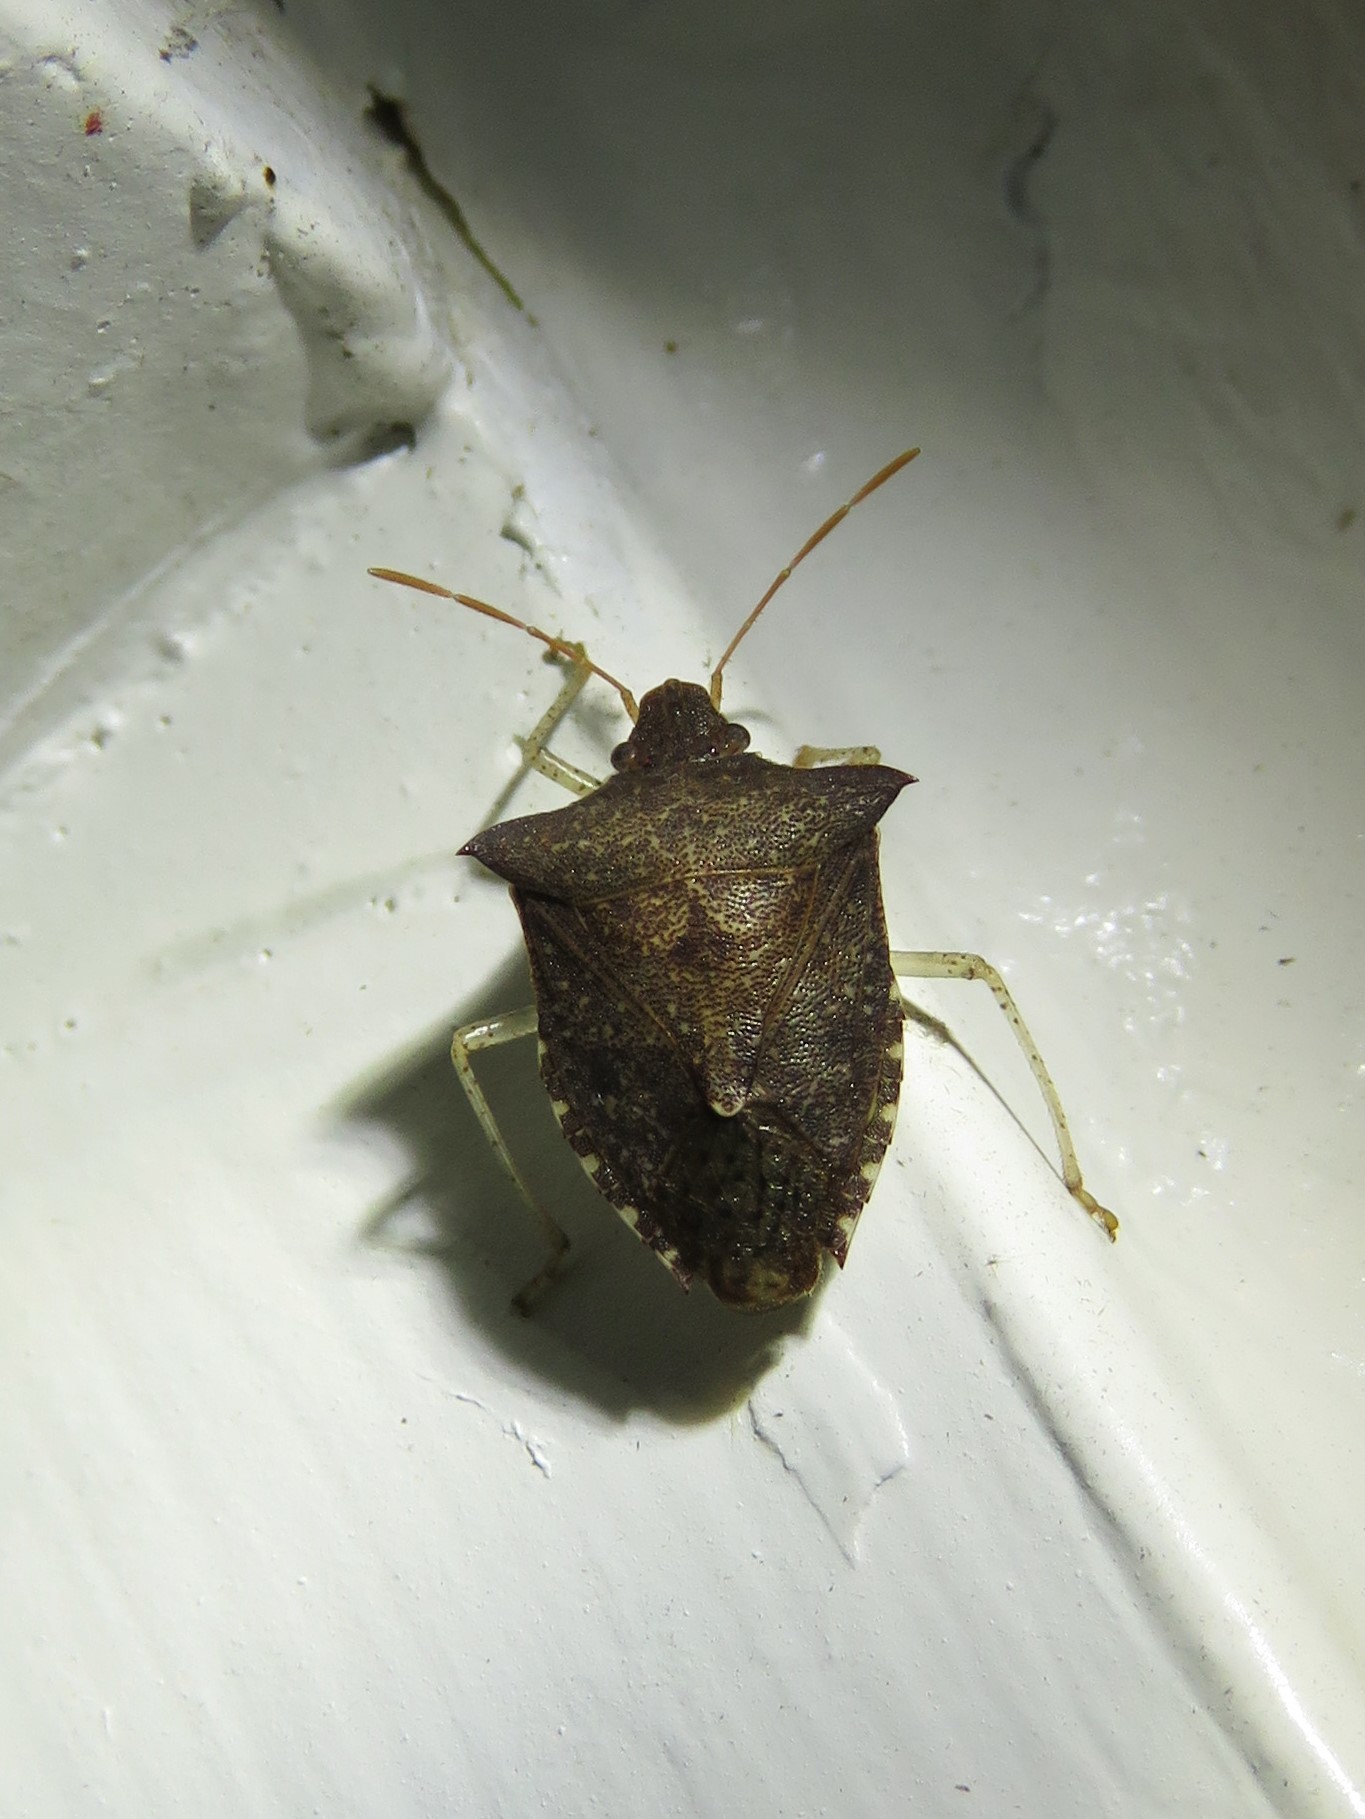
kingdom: Animalia
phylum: Arthropoda
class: Insecta
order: Hemiptera
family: Pentatomidae
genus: Euschistus
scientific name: Euschistus tristigmus
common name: Dusky stink bug
